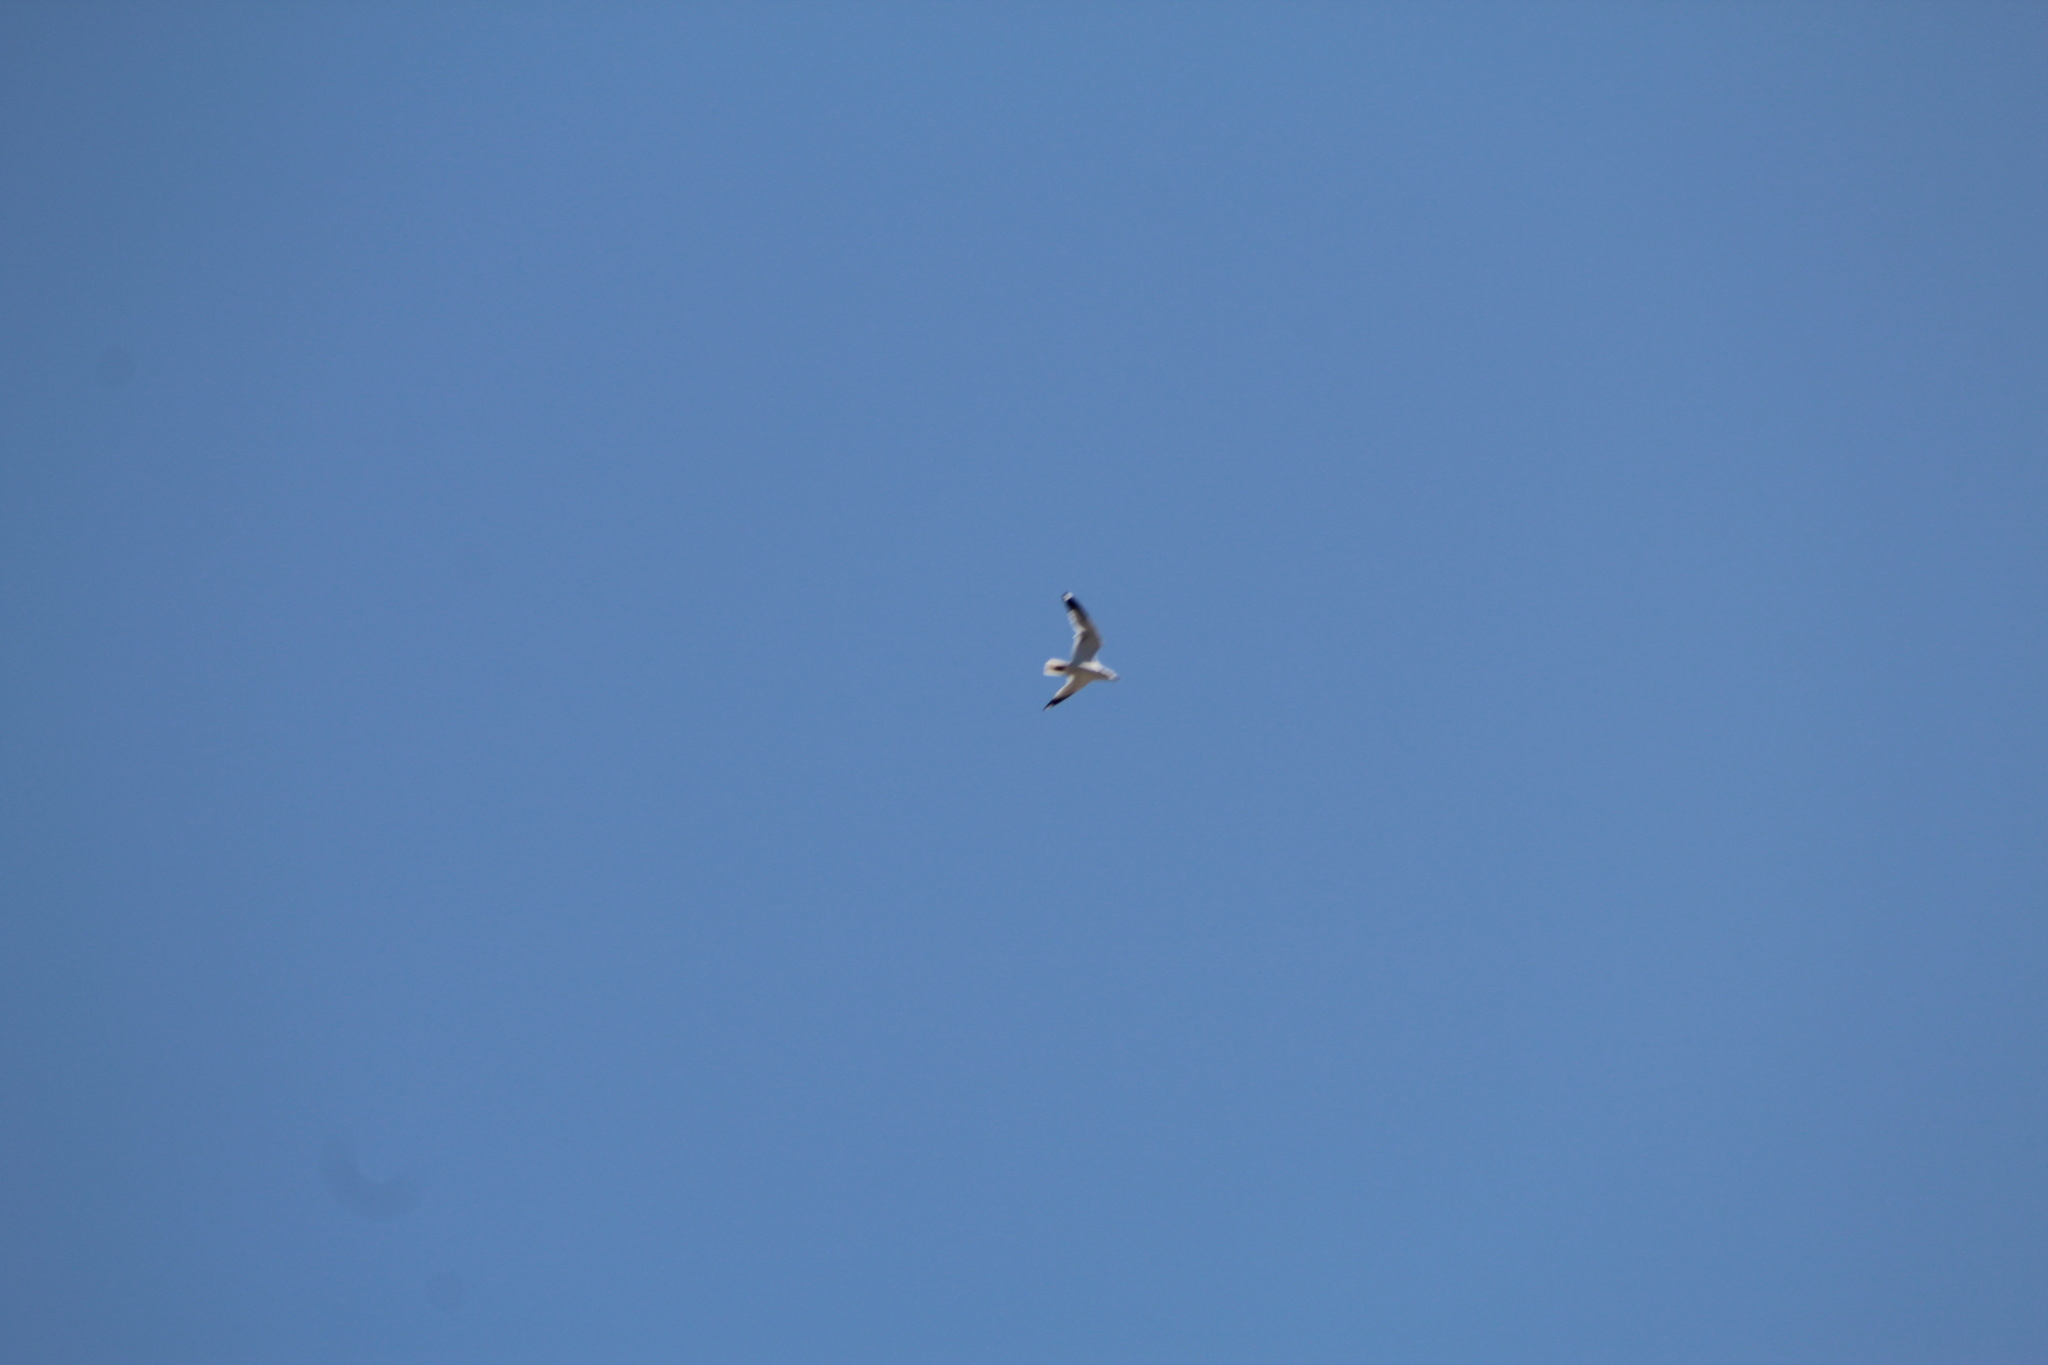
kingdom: Animalia
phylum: Chordata
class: Aves
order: Charadriiformes
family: Laridae
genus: Larus
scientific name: Larus delawarensis
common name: Ring-billed gull
